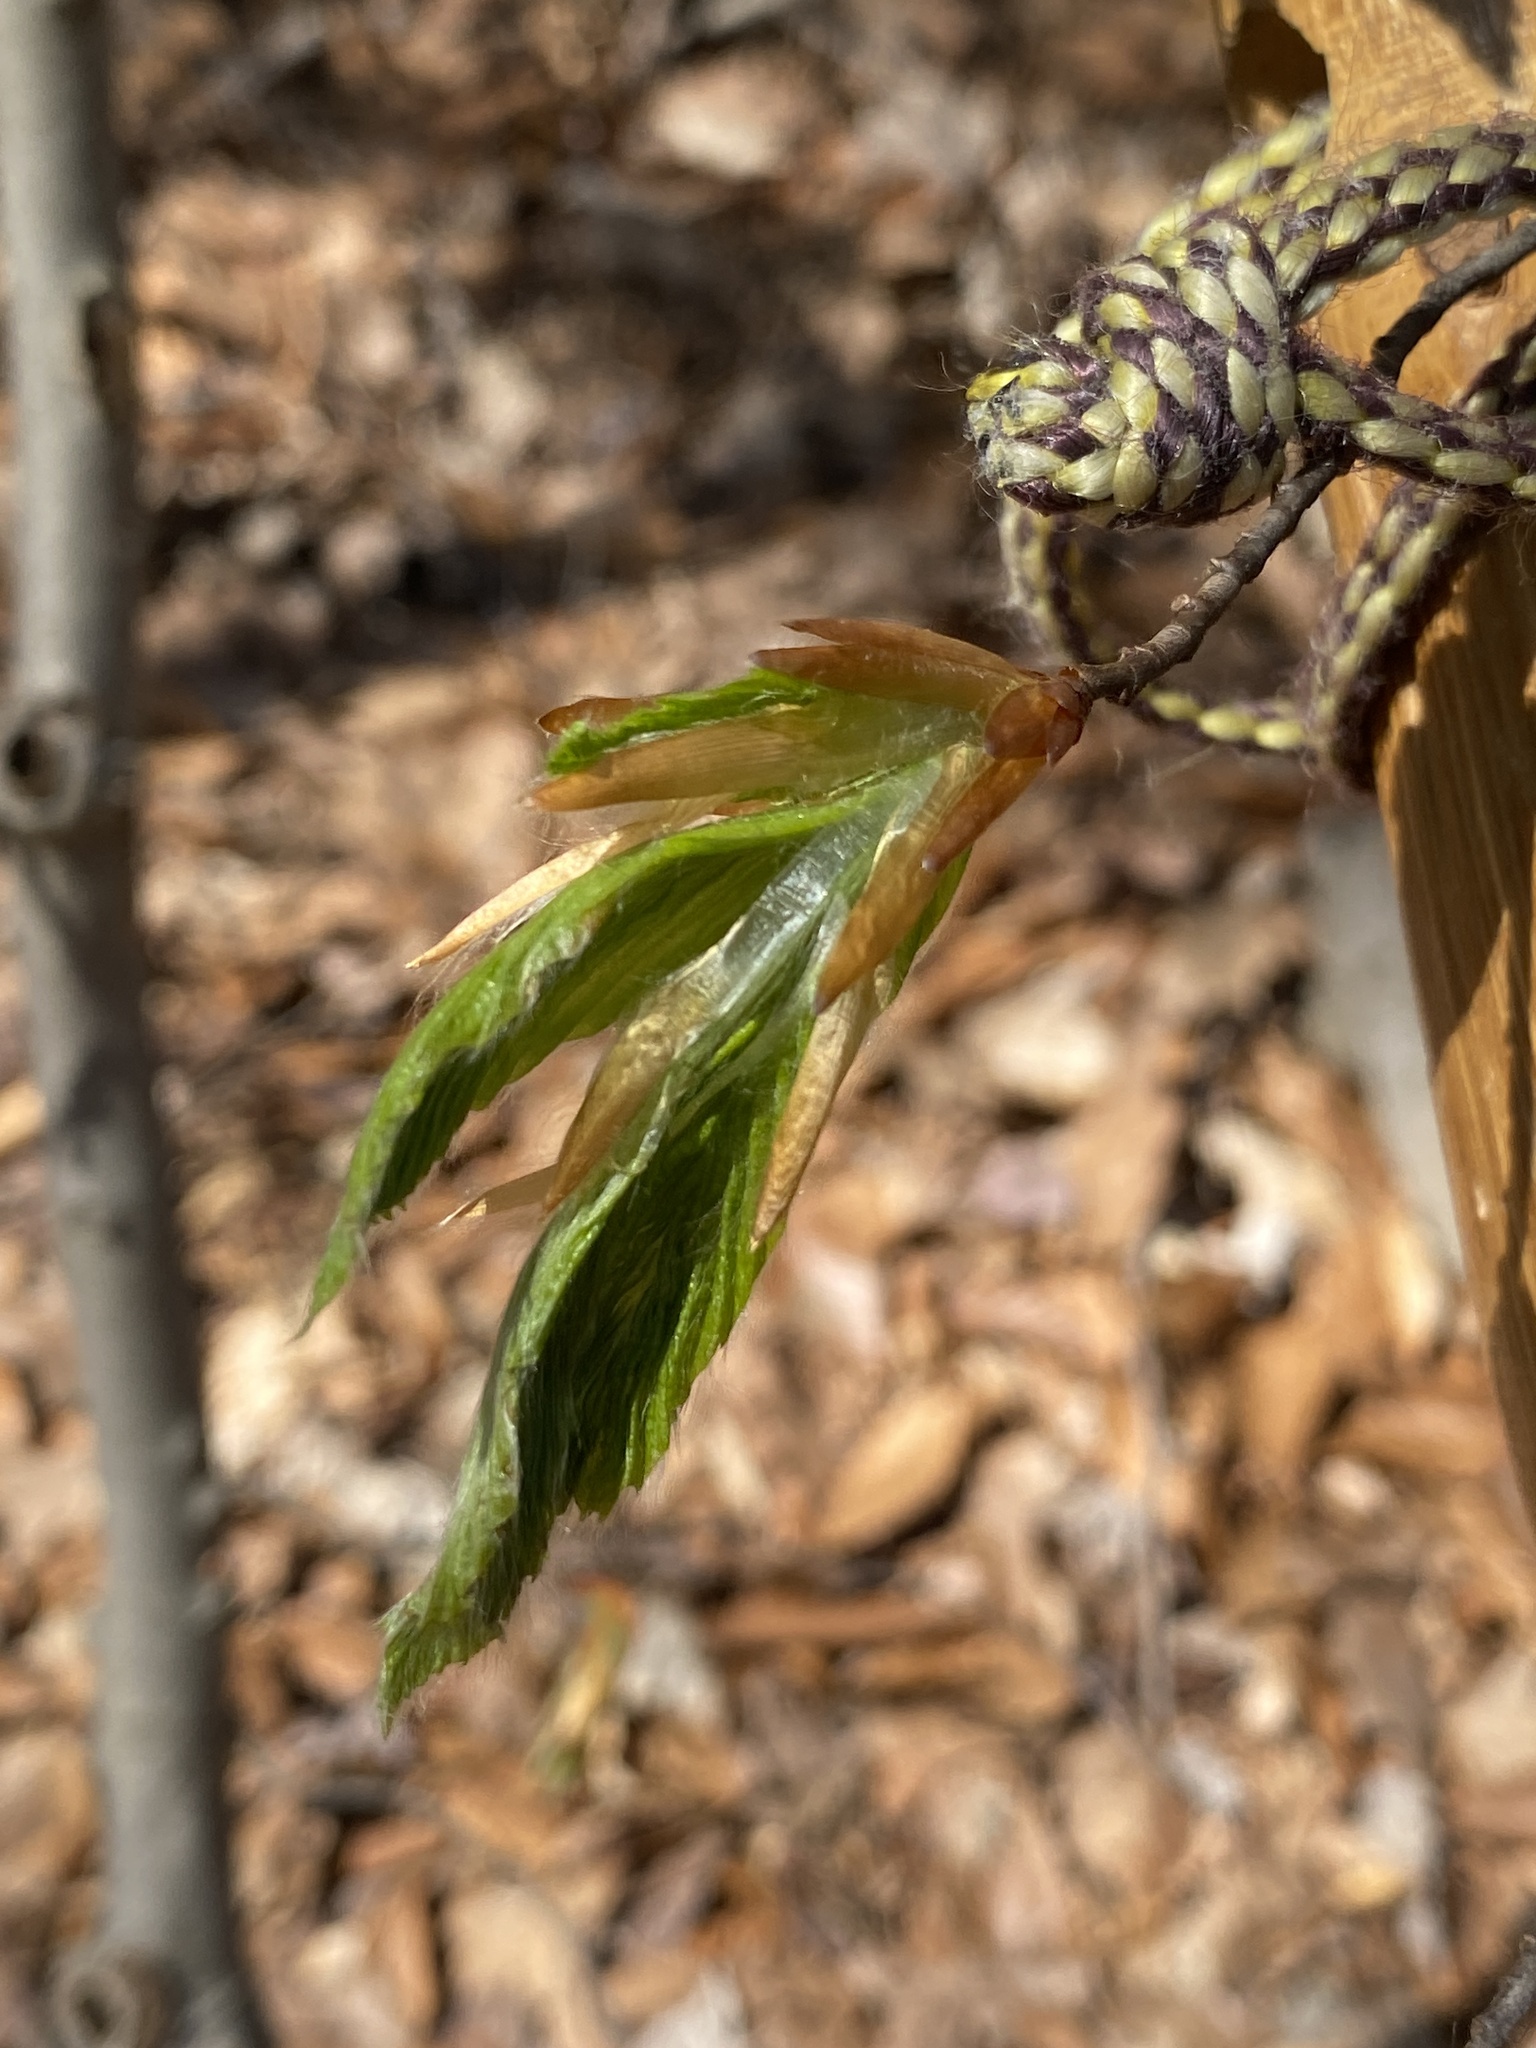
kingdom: Plantae
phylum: Tracheophyta
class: Magnoliopsida
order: Fagales
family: Fagaceae
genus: Fagus
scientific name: Fagus grandifolia
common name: American beech
